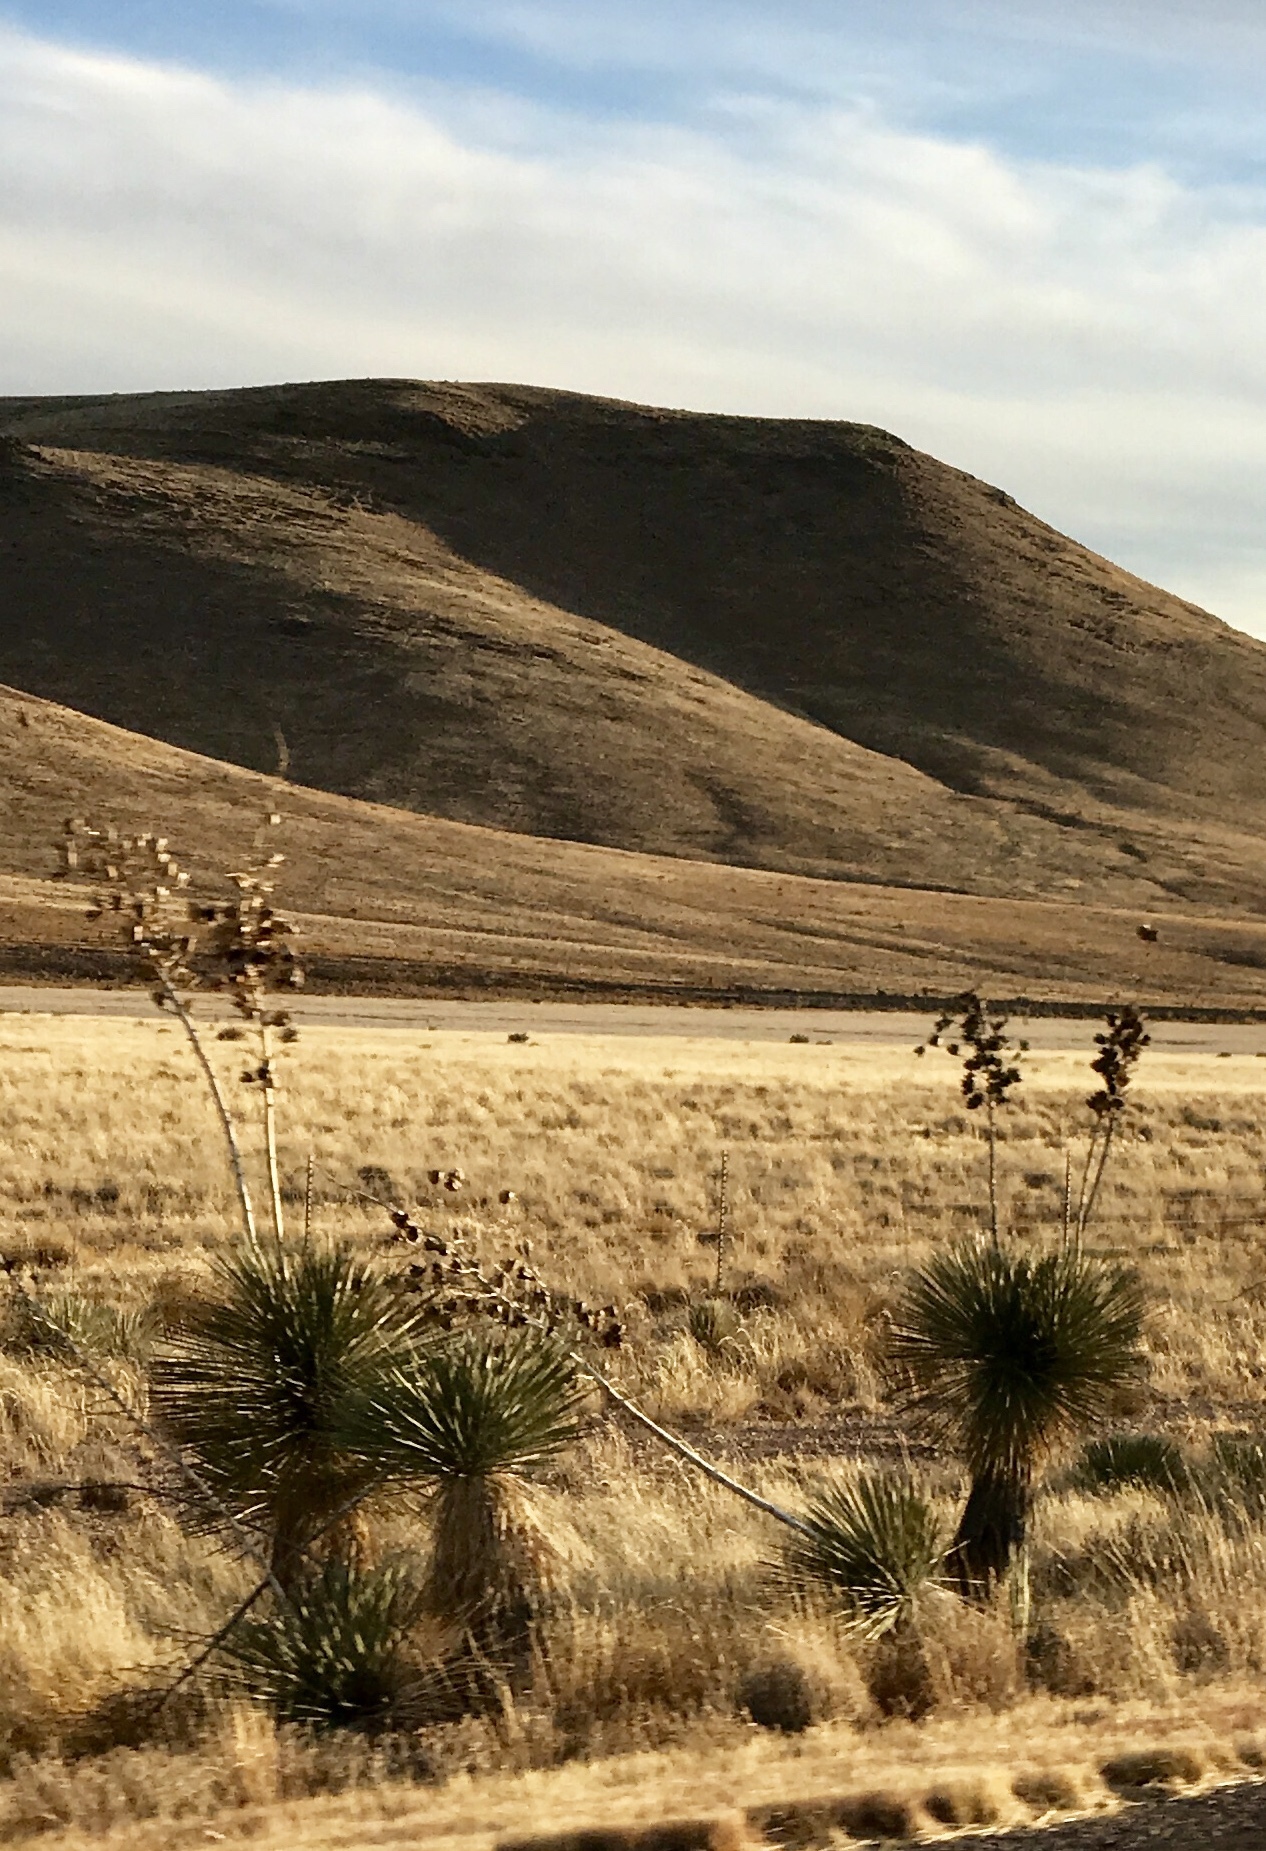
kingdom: Plantae
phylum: Tracheophyta
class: Liliopsida
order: Asparagales
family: Asparagaceae
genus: Yucca
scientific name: Yucca elata
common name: Palmella
